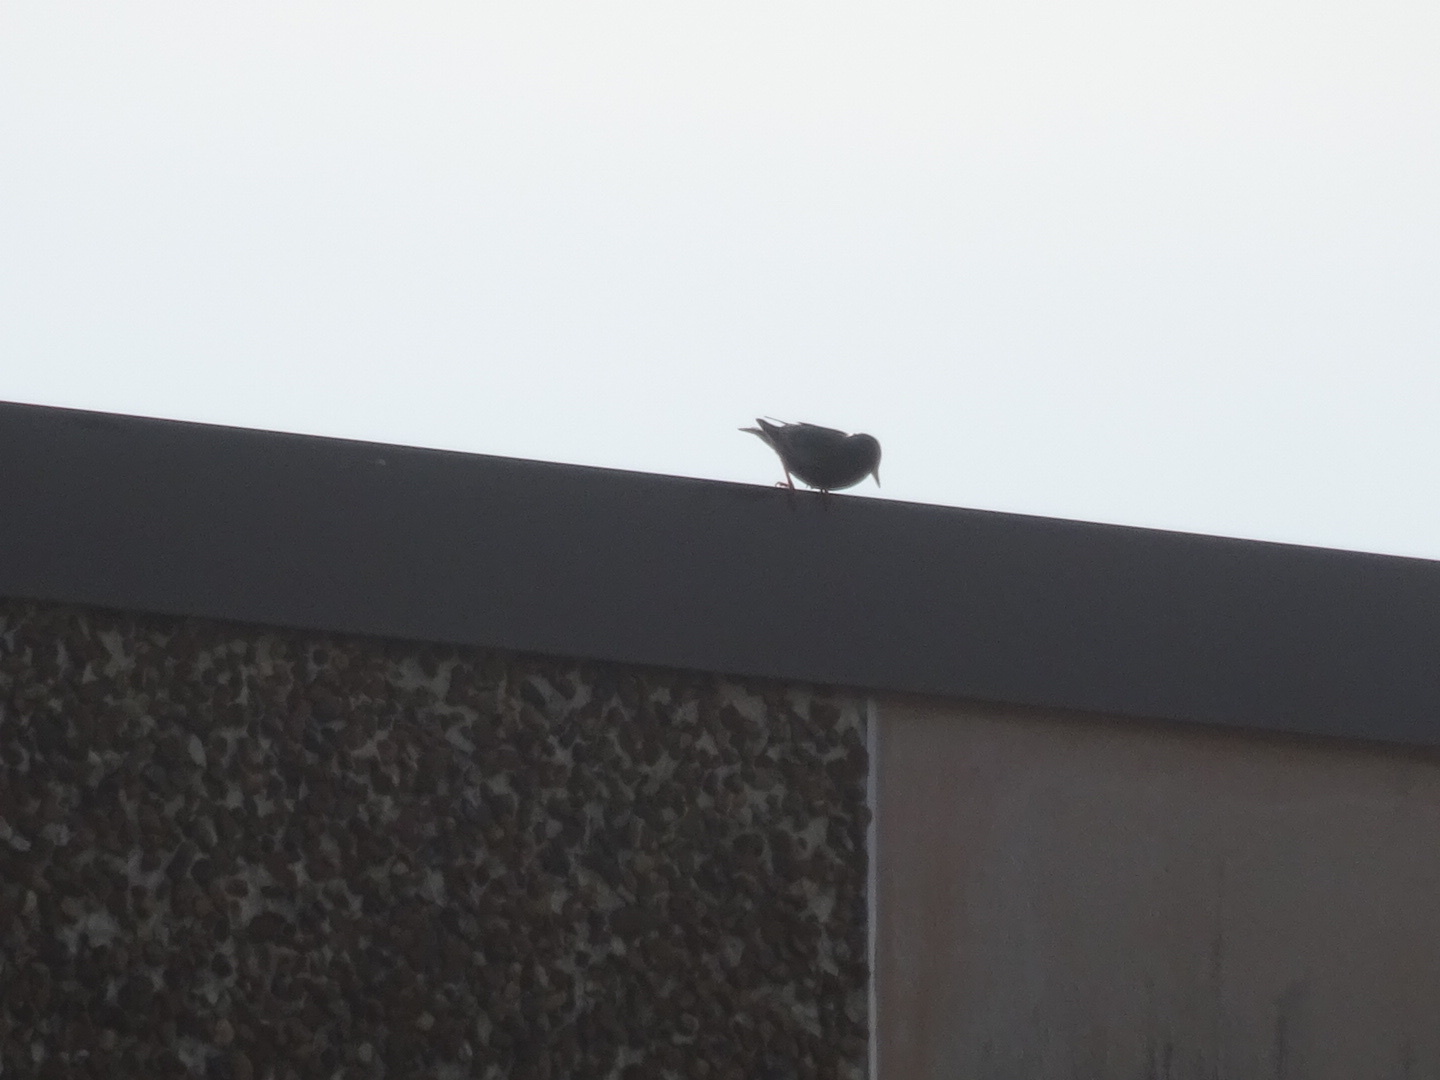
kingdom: Animalia
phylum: Chordata
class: Aves
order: Passeriformes
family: Sturnidae
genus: Sturnus
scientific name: Sturnus vulgaris
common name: Common starling
